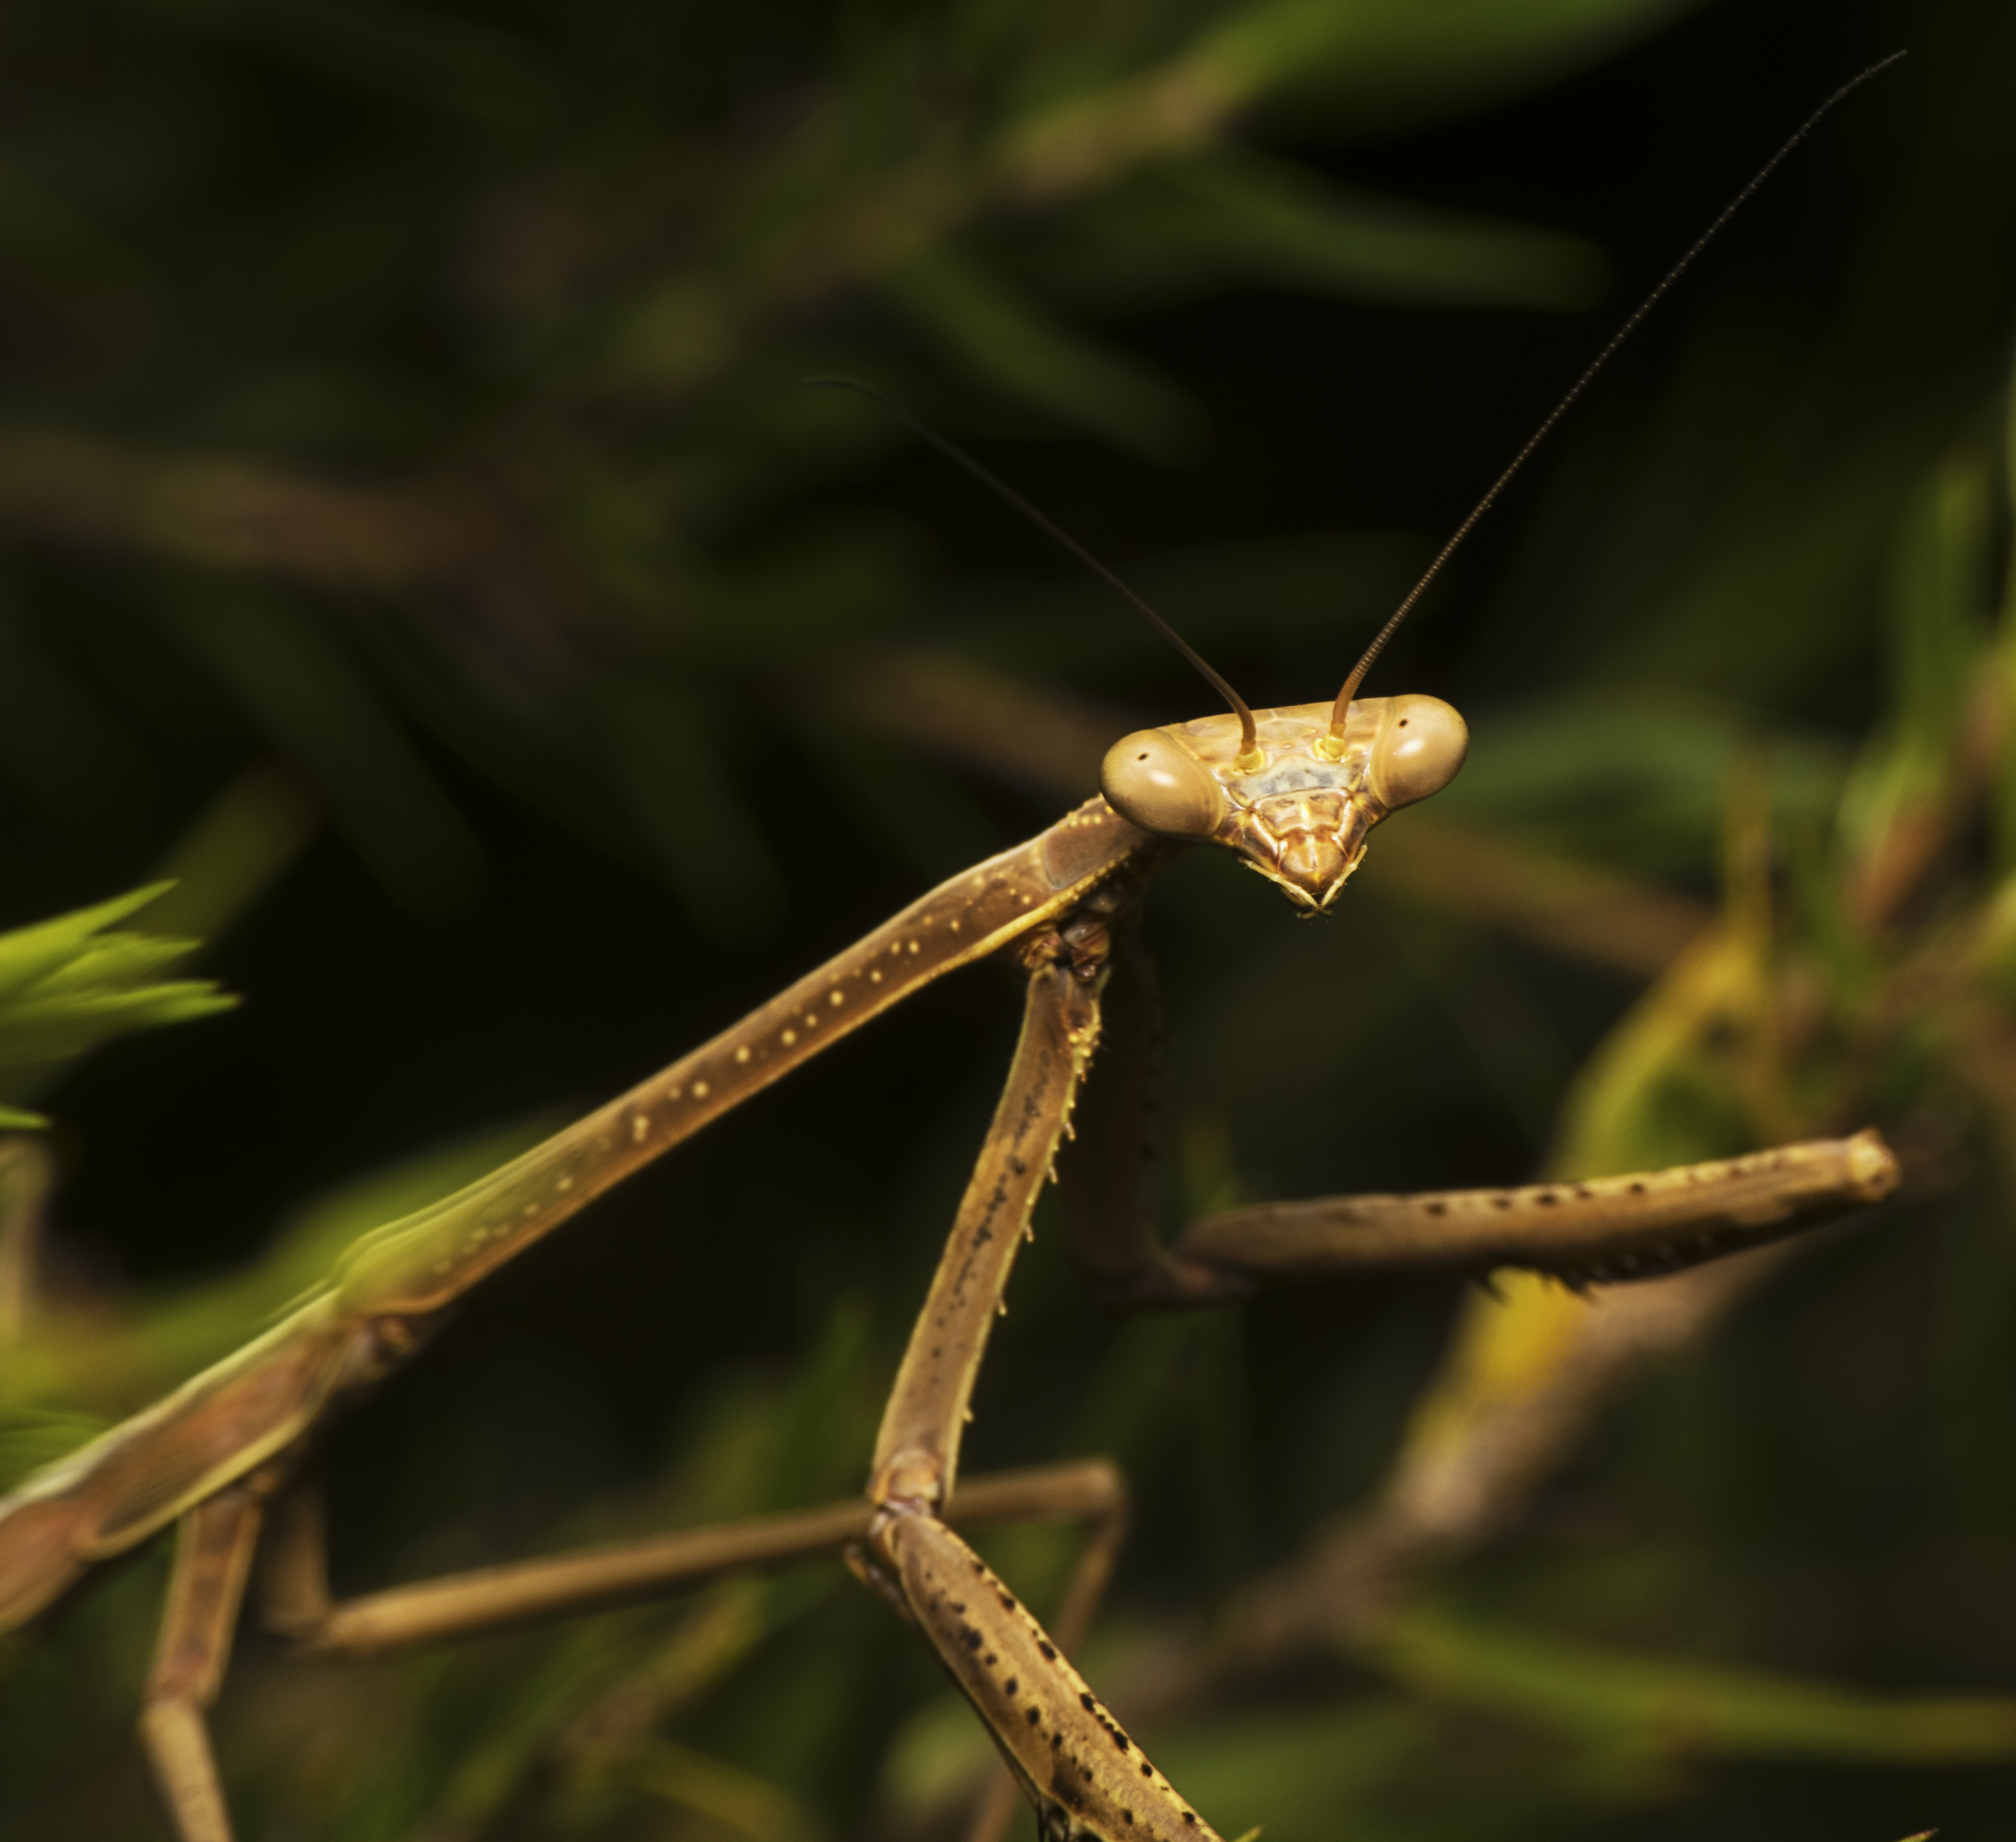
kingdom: Animalia
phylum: Arthropoda
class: Insecta
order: Mantodea
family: Mantidae
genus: Archimantis
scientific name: Archimantis latistyla
